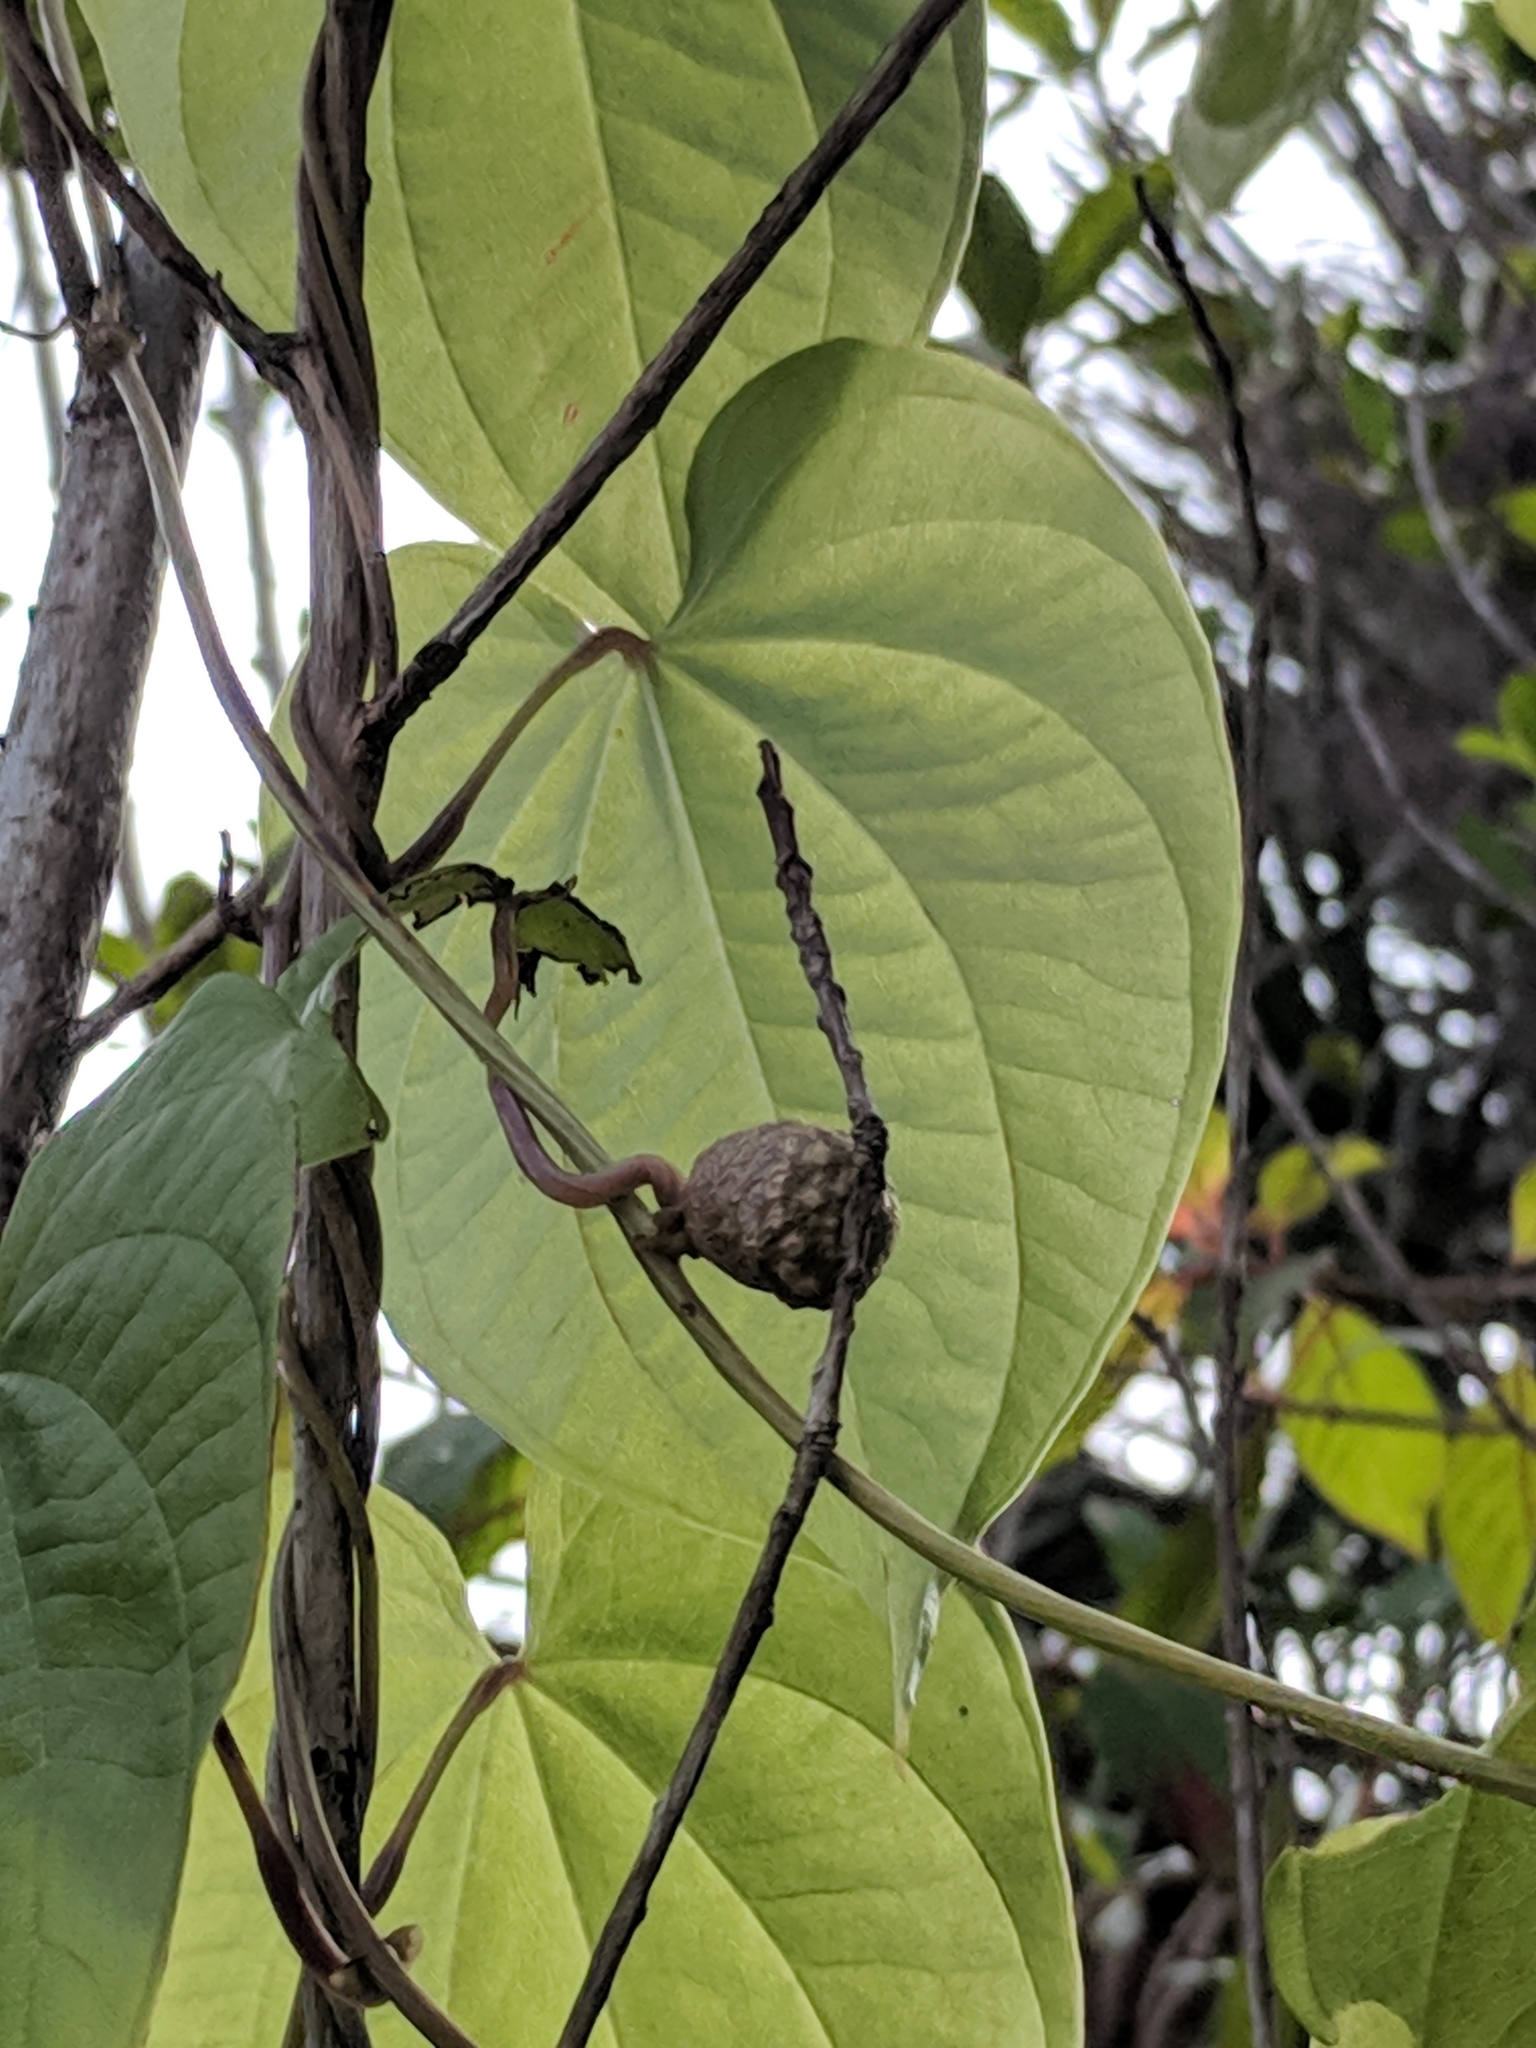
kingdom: Plantae
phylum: Tracheophyta
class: Liliopsida
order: Dioscoreales
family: Dioscoreaceae
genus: Dioscorea
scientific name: Dioscorea bulbifera
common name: Air yam
